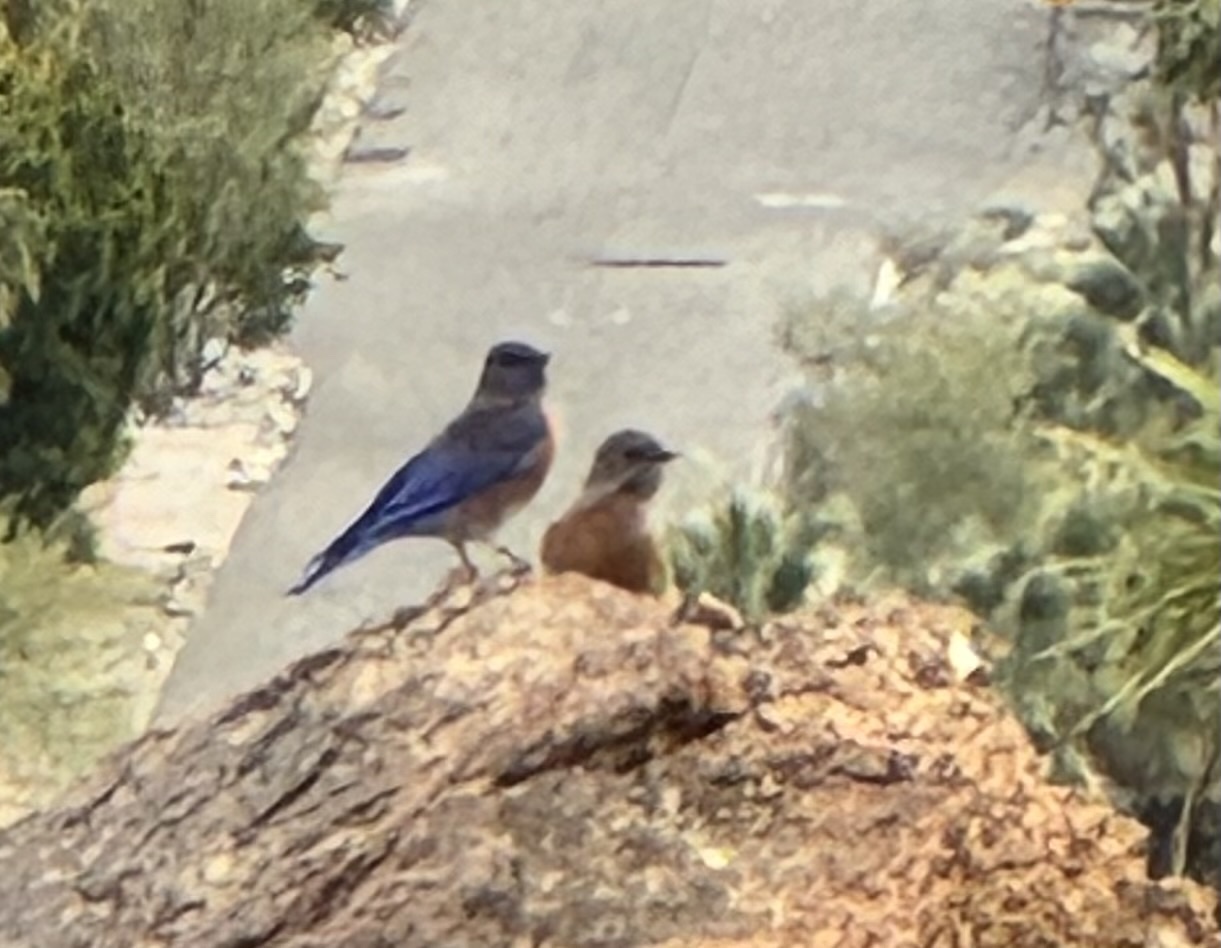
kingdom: Animalia
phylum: Chordata
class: Aves
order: Passeriformes
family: Turdidae
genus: Sialia
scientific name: Sialia mexicana
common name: Western bluebird
